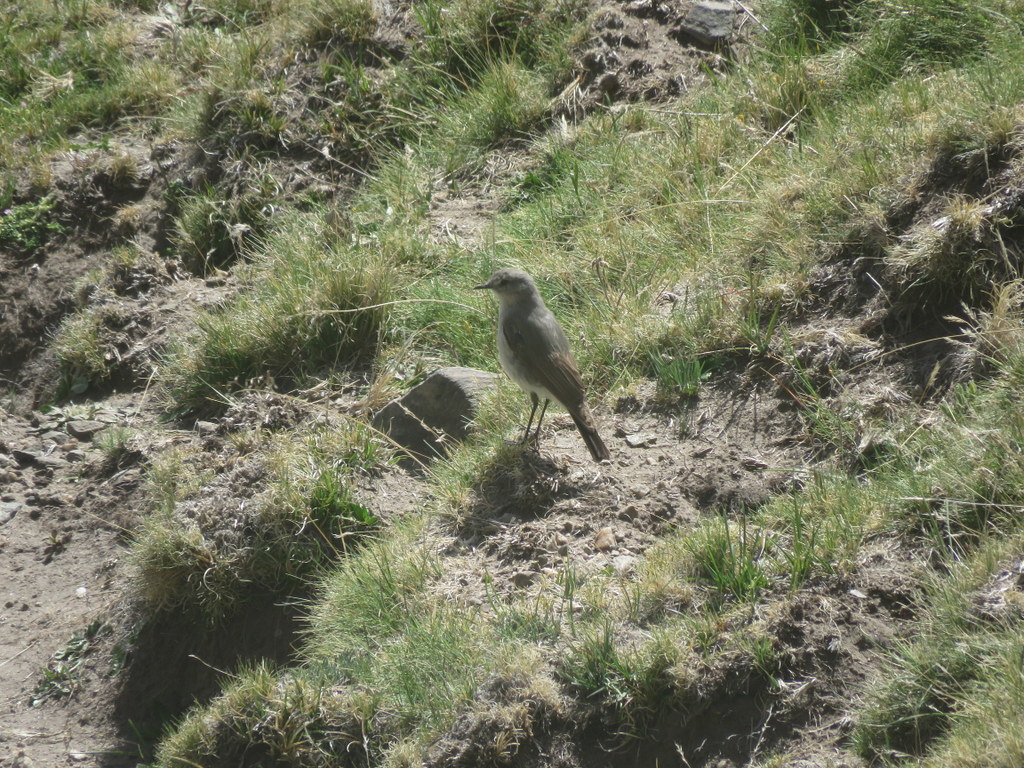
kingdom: Animalia
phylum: Chordata
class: Aves
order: Passeriformes
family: Tyrannidae
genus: Muscisaxicola
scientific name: Muscisaxicola cinereus
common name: Cinereous ground tyrant
